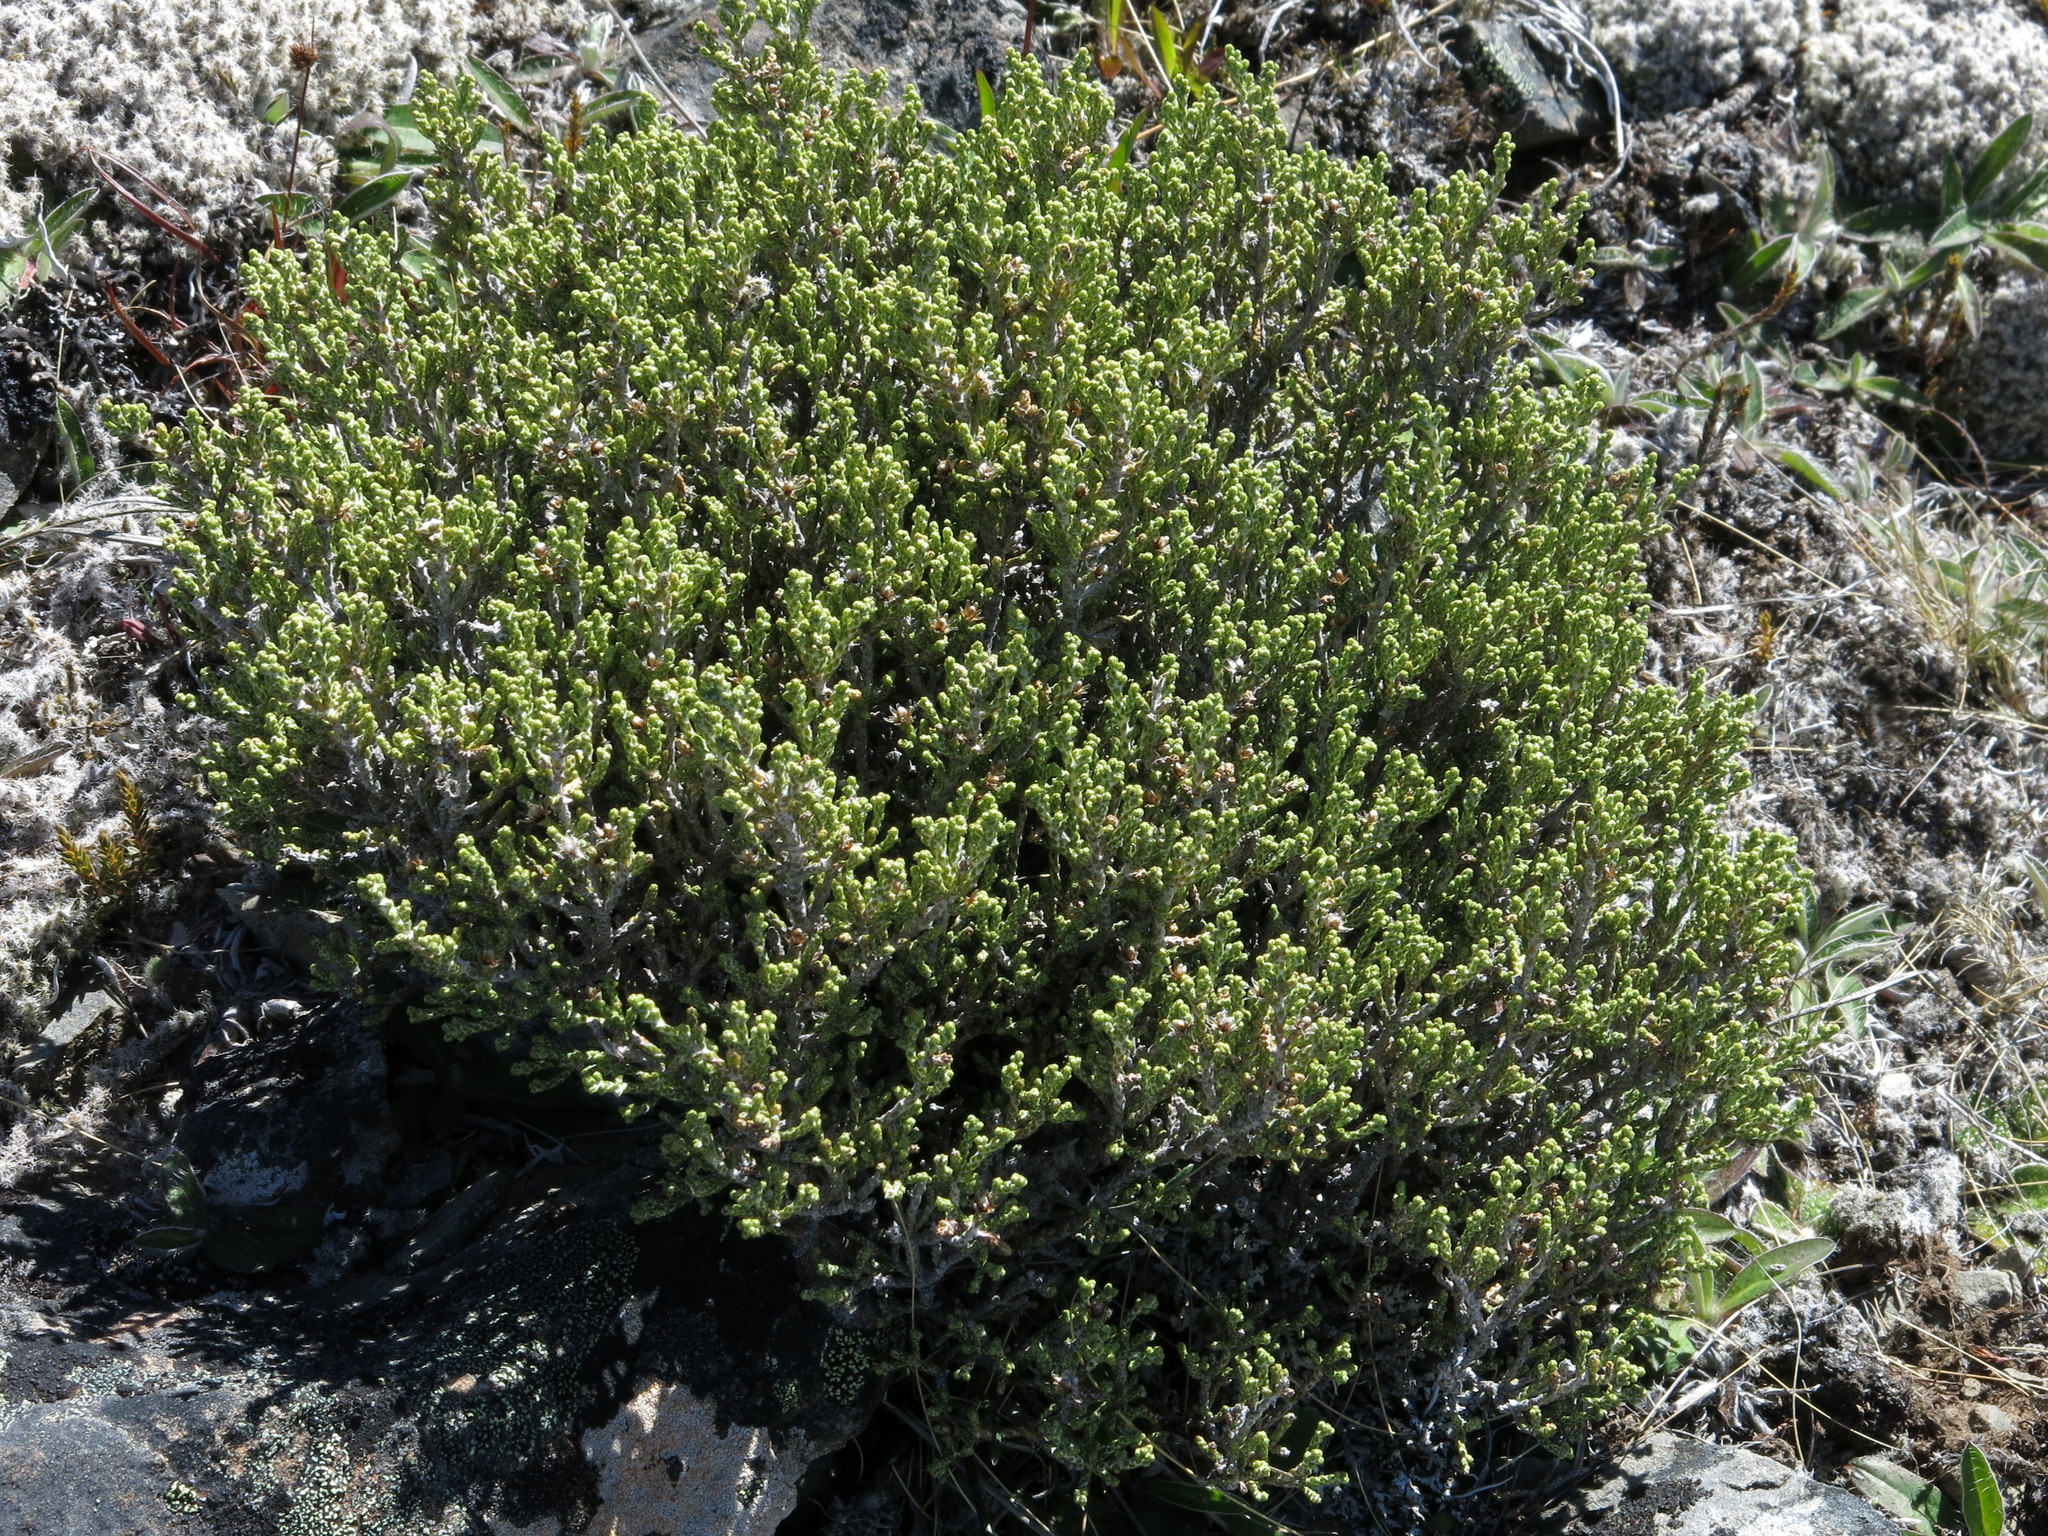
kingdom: Plantae
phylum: Tracheophyta
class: Magnoliopsida
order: Asterales
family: Asteraceae
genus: Ozothamnus
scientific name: Ozothamnus parvifolius
